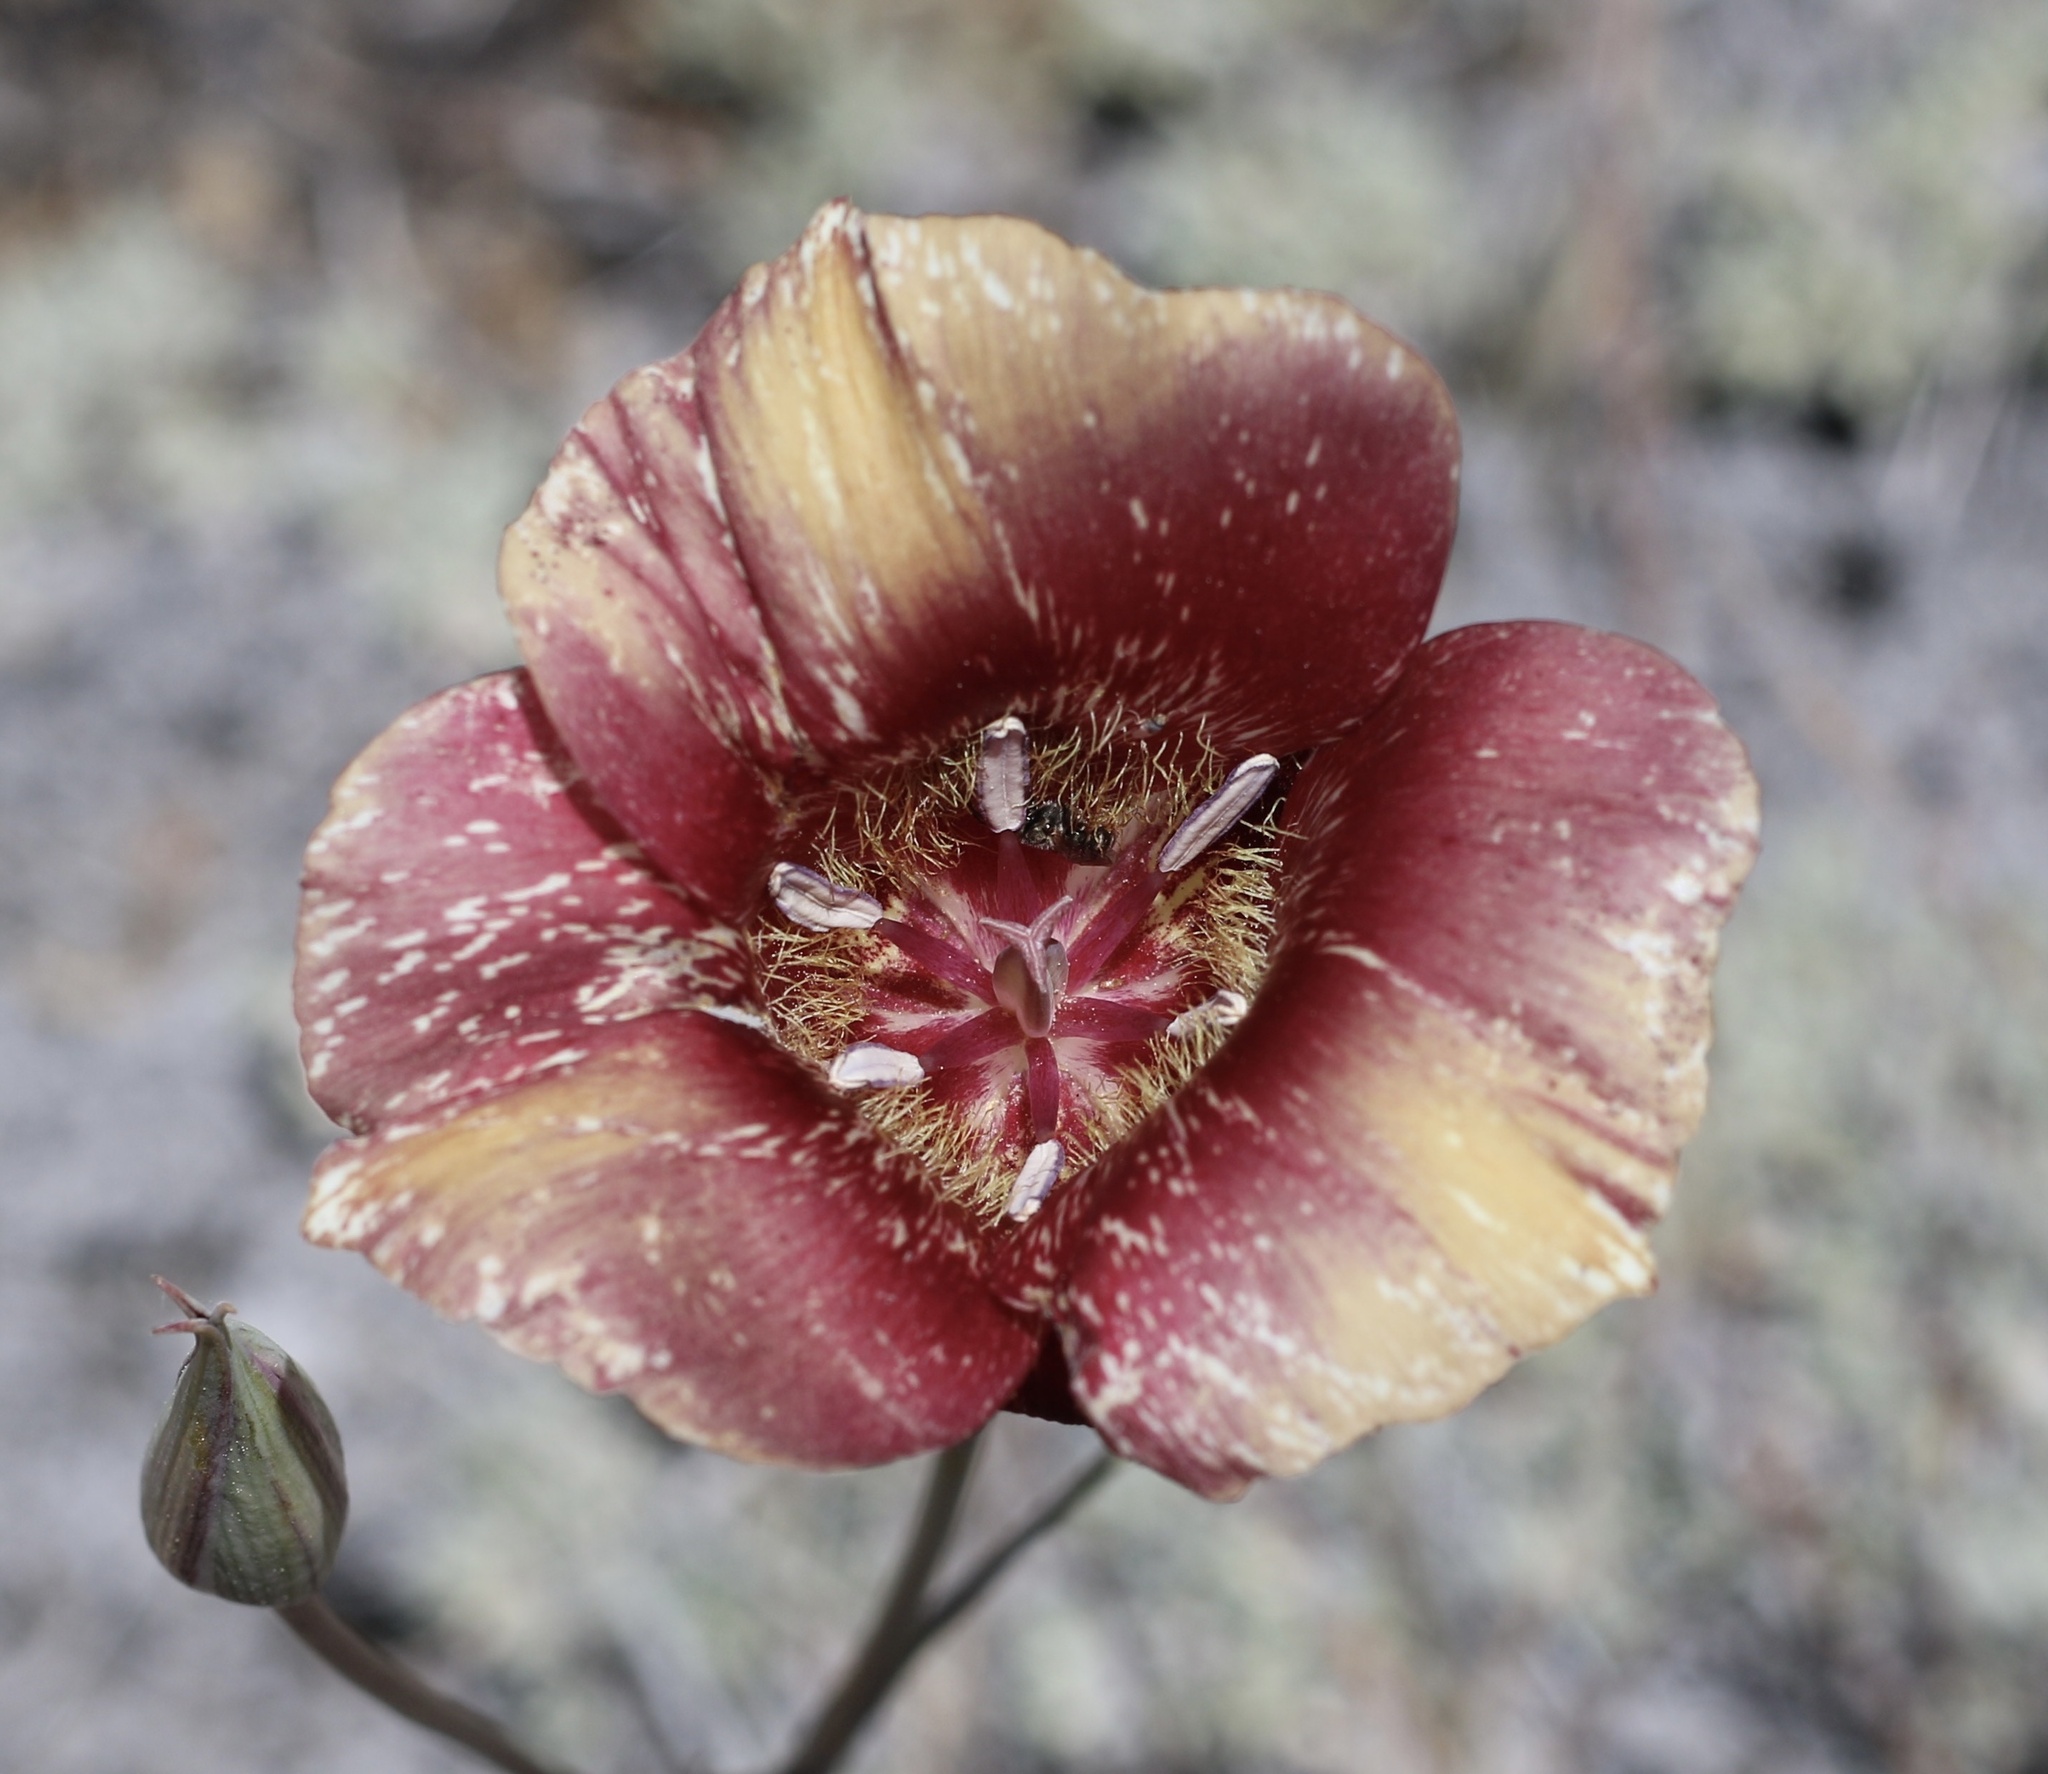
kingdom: Plantae
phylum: Tracheophyta
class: Liliopsida
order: Liliales
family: Liliaceae
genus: Calochortus
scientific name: Calochortus venustus
